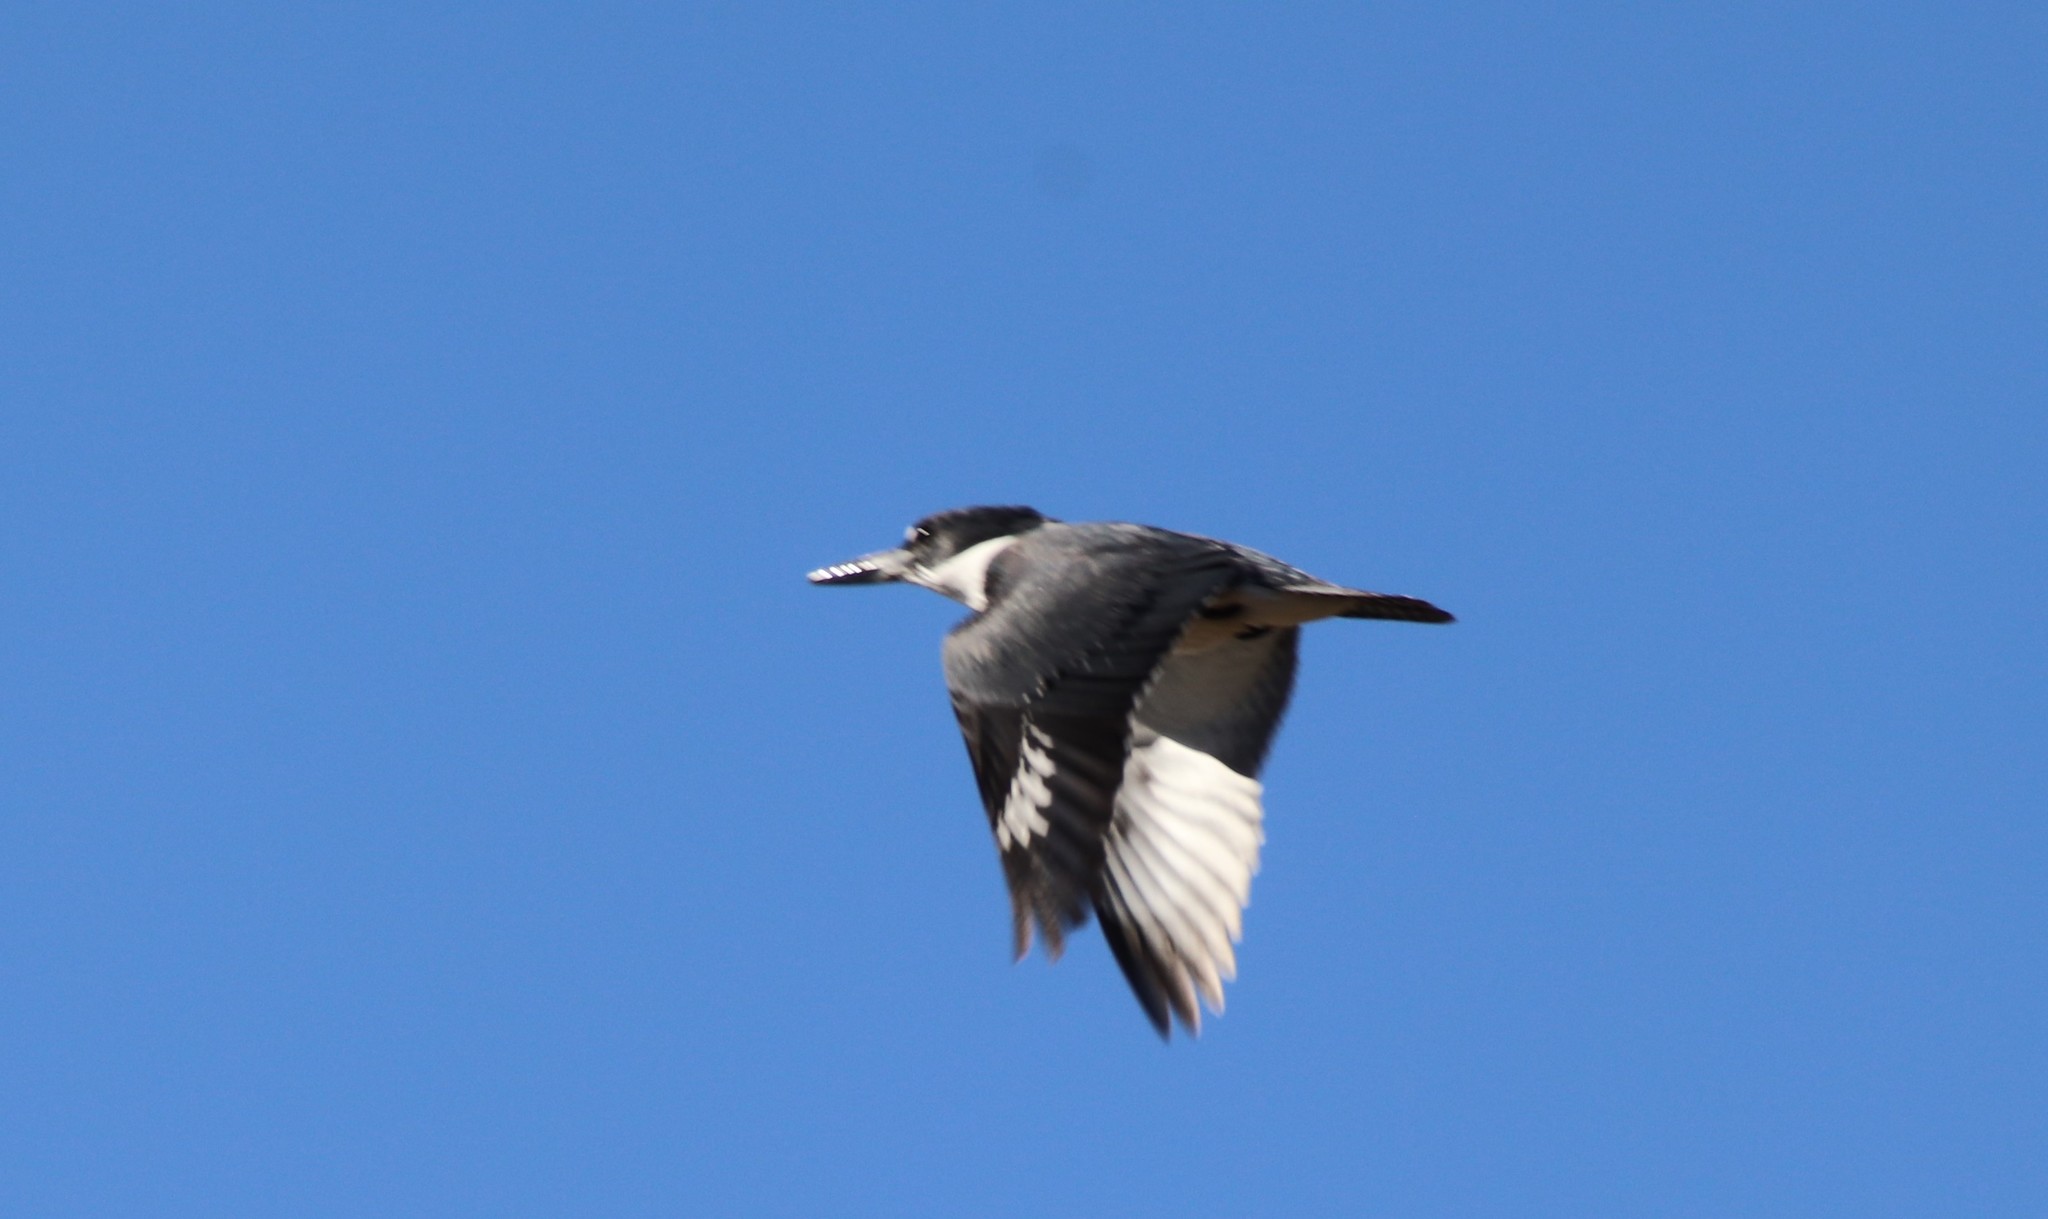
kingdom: Animalia
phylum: Chordata
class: Aves
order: Coraciiformes
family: Alcedinidae
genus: Megaceryle
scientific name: Megaceryle alcyon
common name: Belted kingfisher
